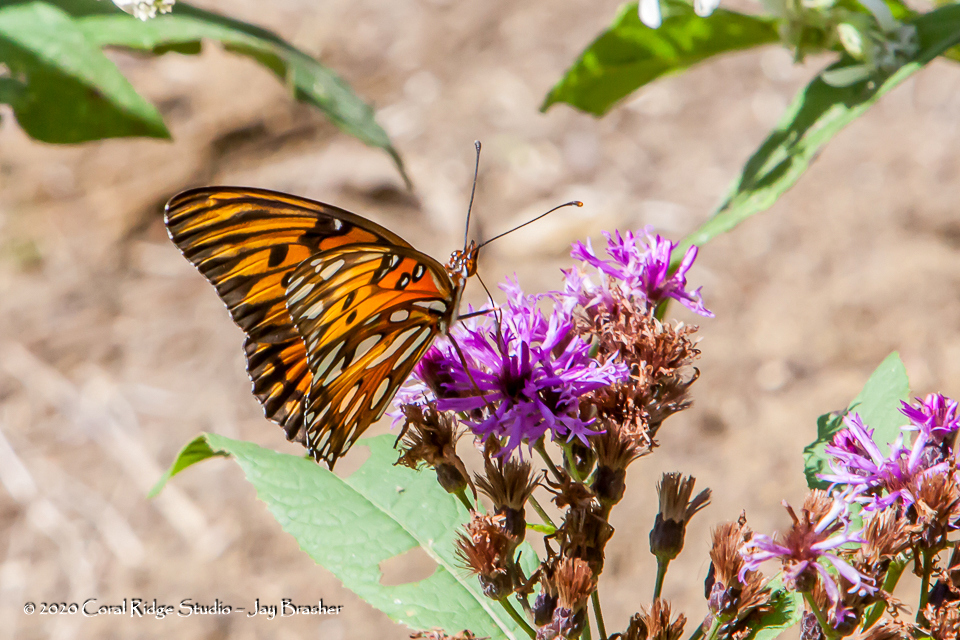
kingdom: Animalia
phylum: Arthropoda
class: Insecta
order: Lepidoptera
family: Nymphalidae
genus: Dione
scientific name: Dione vanillae
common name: Gulf fritillary
